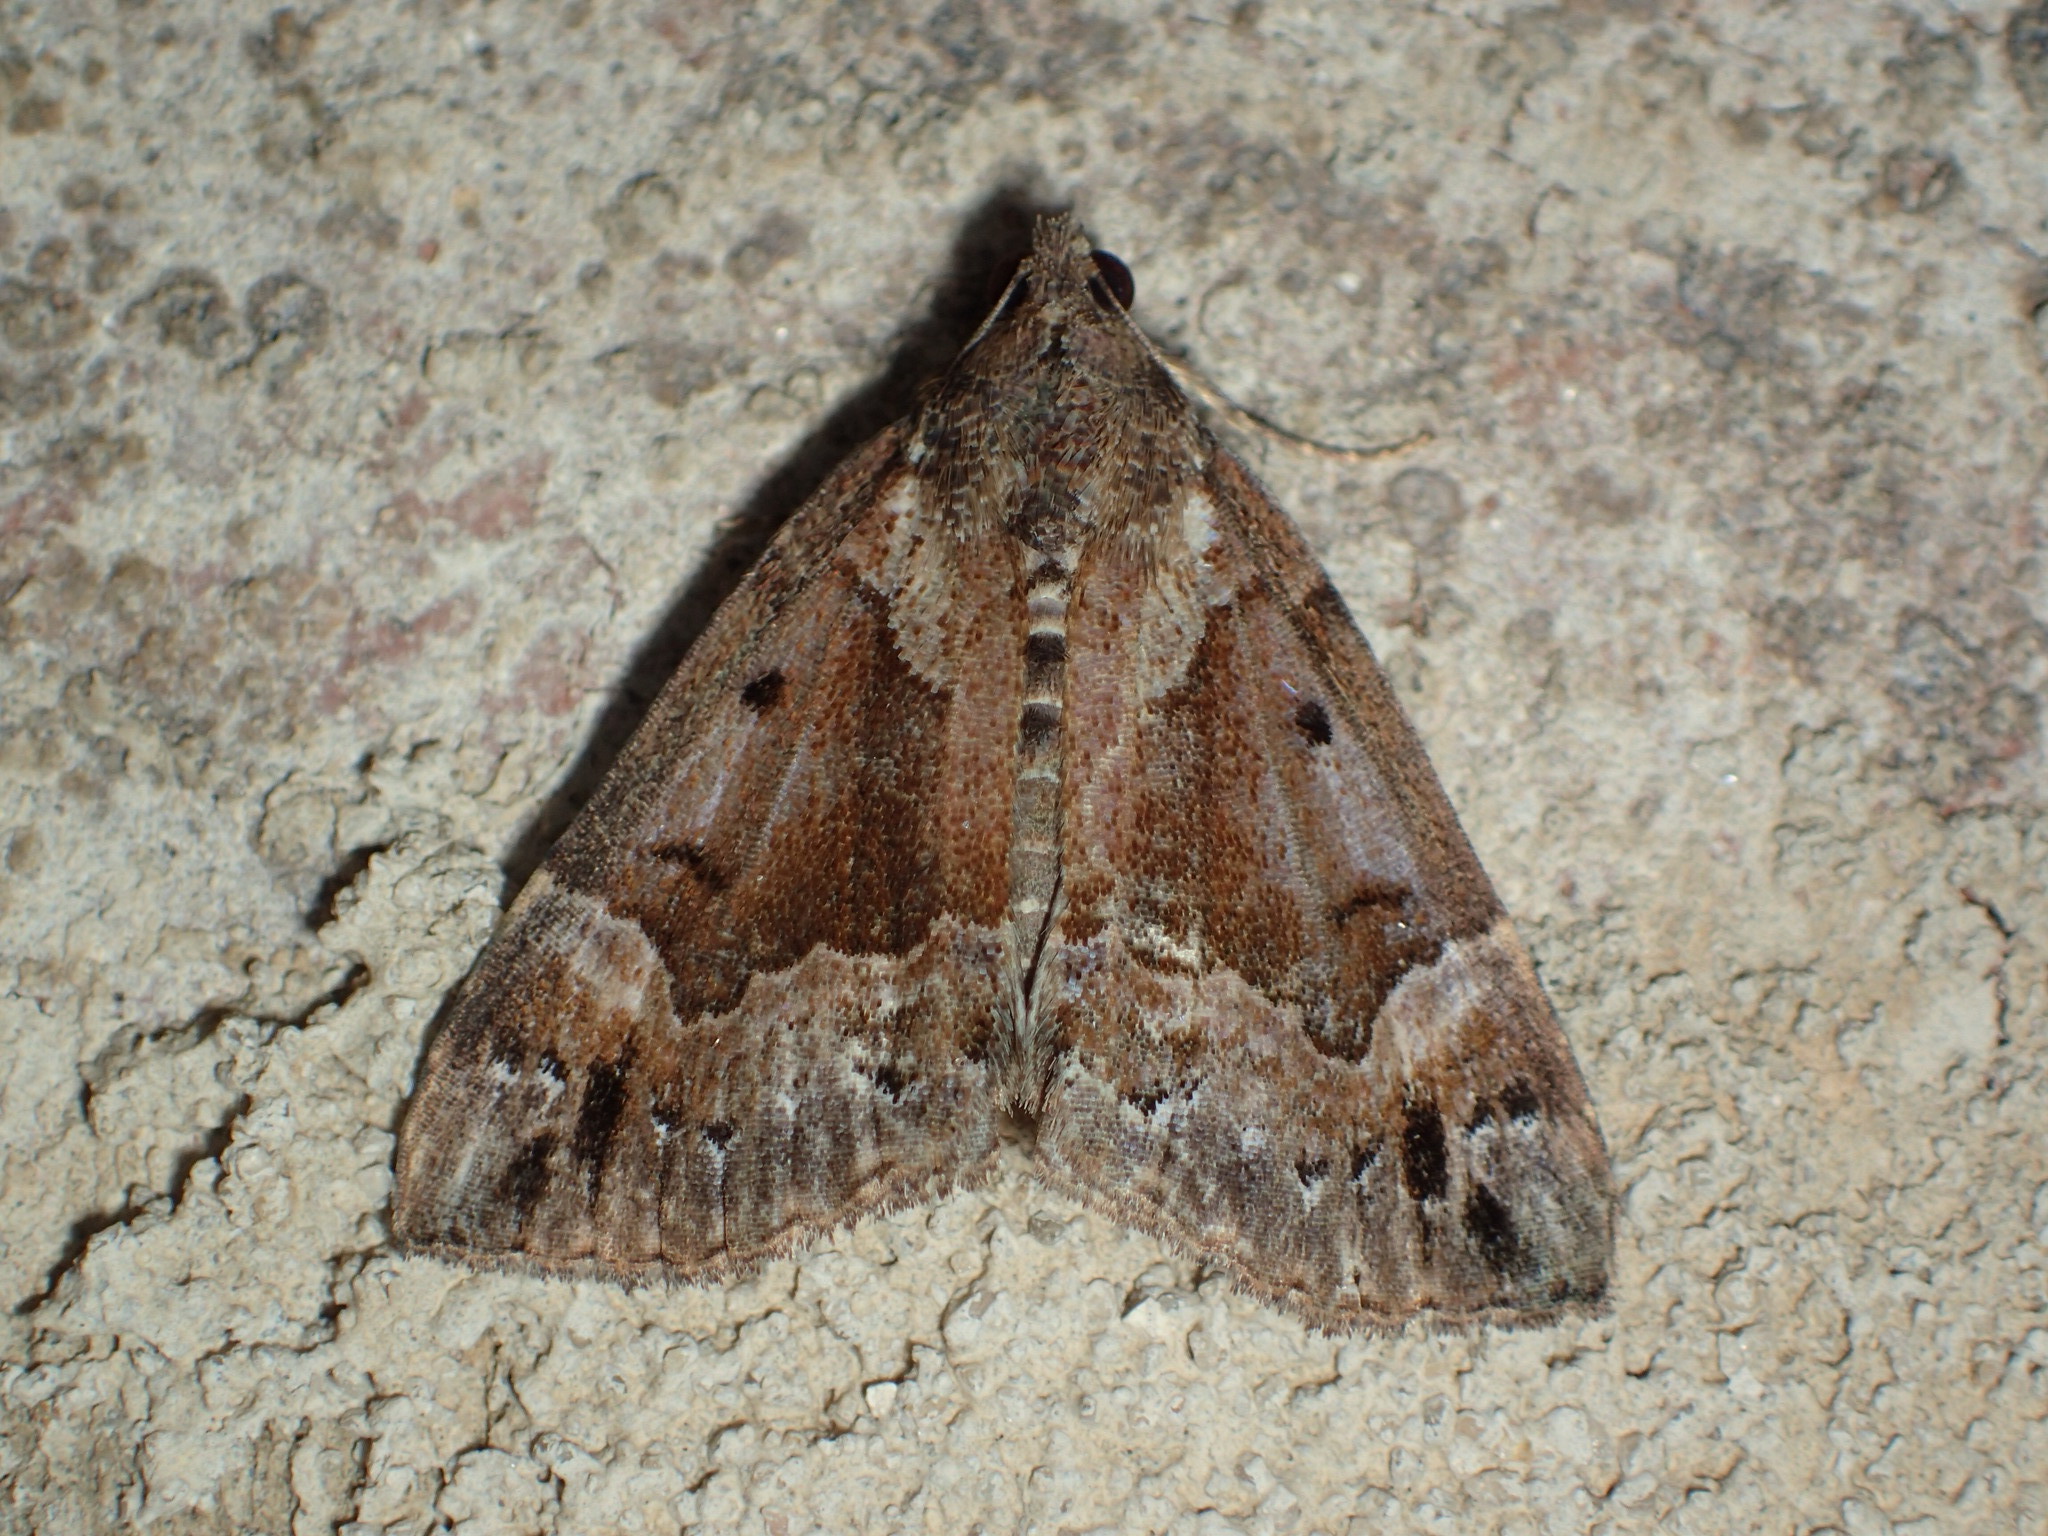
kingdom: Animalia
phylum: Arthropoda
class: Insecta
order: Lepidoptera
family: Erebidae
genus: Hypena
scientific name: Hypena palparia
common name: Mottled bomolocha moth
